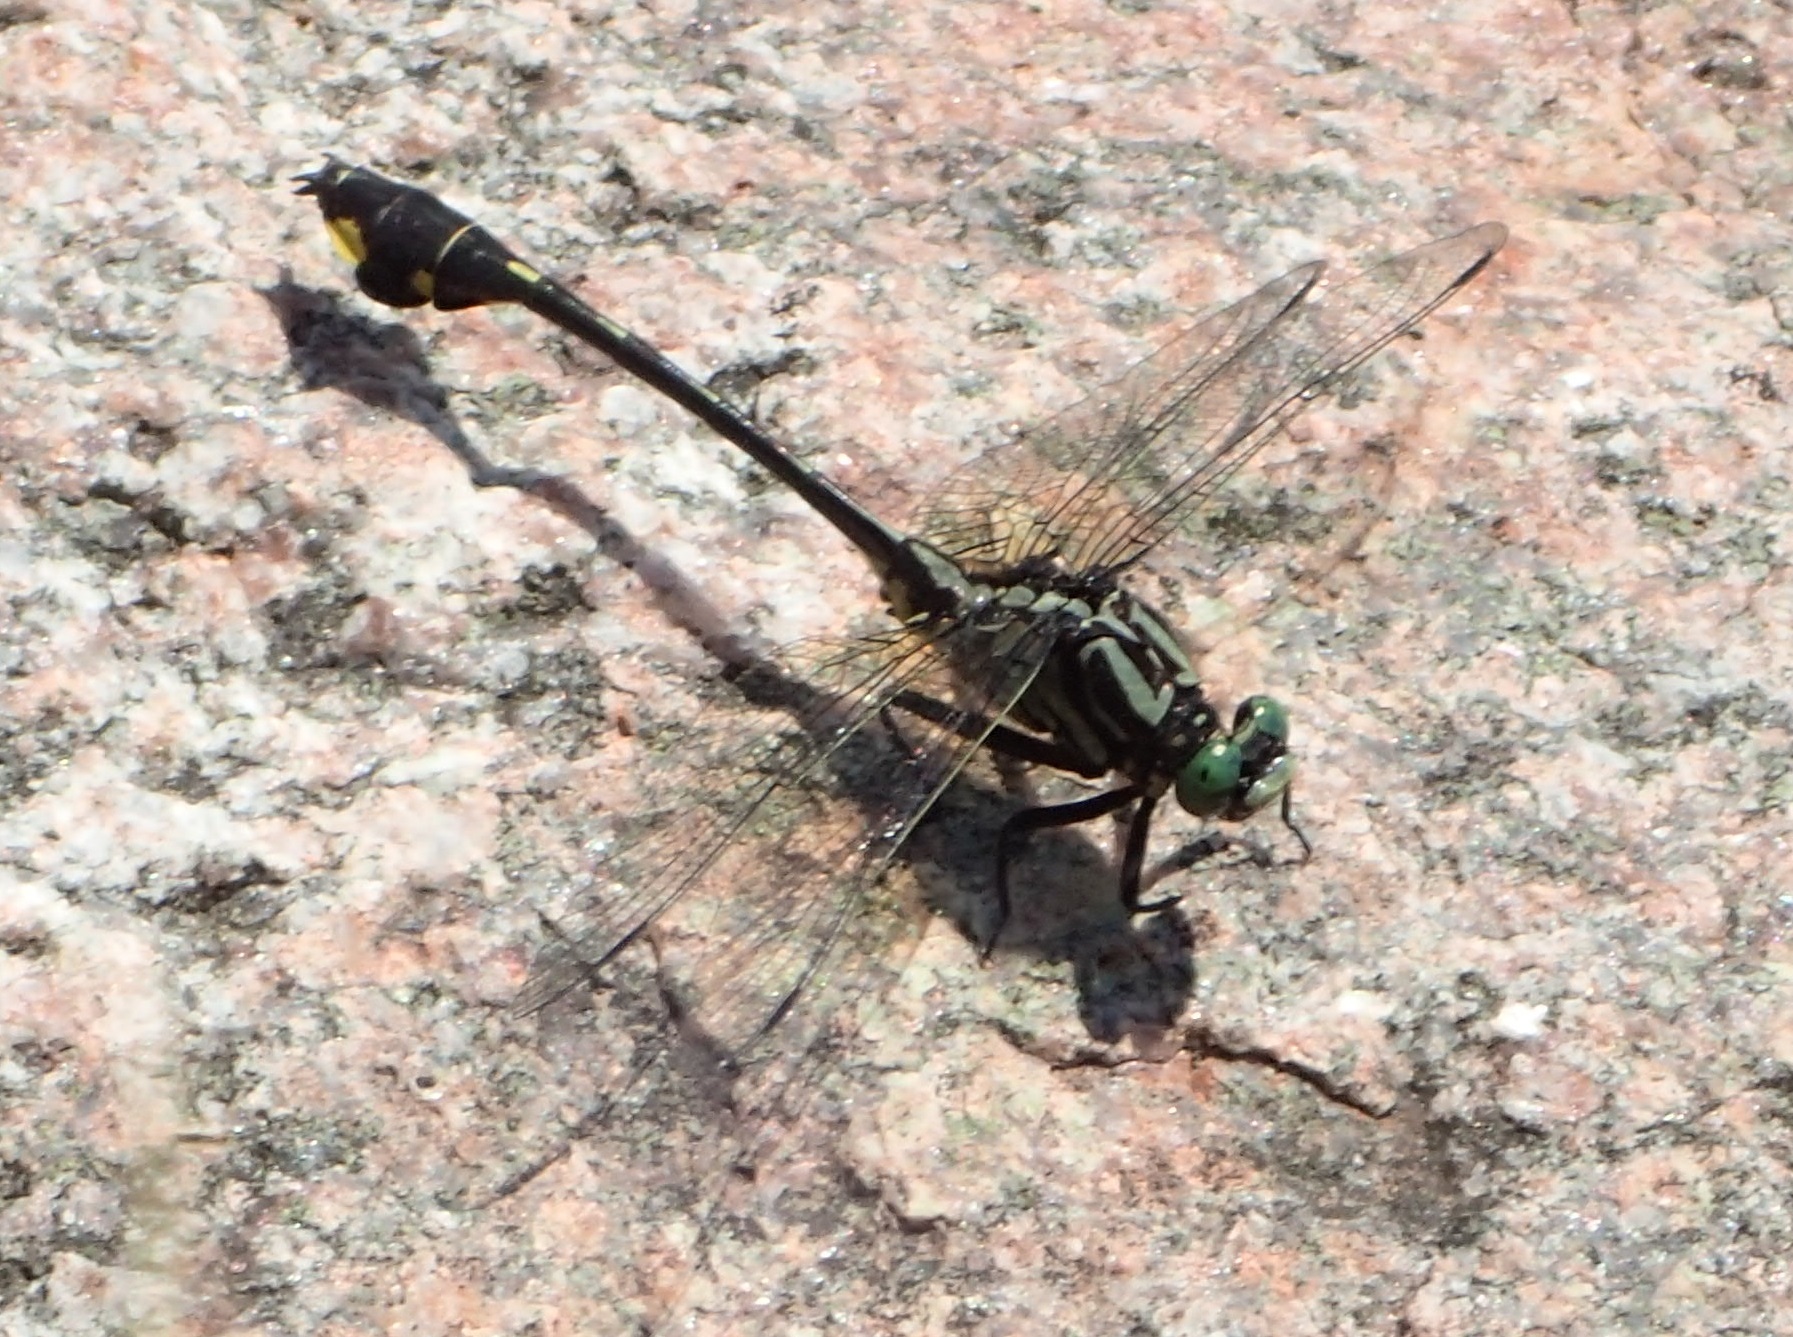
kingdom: Animalia
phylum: Arthropoda
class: Insecta
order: Odonata
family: Gomphidae
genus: Gomphurus
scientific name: Gomphurus vastus
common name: Cobra clubtail
